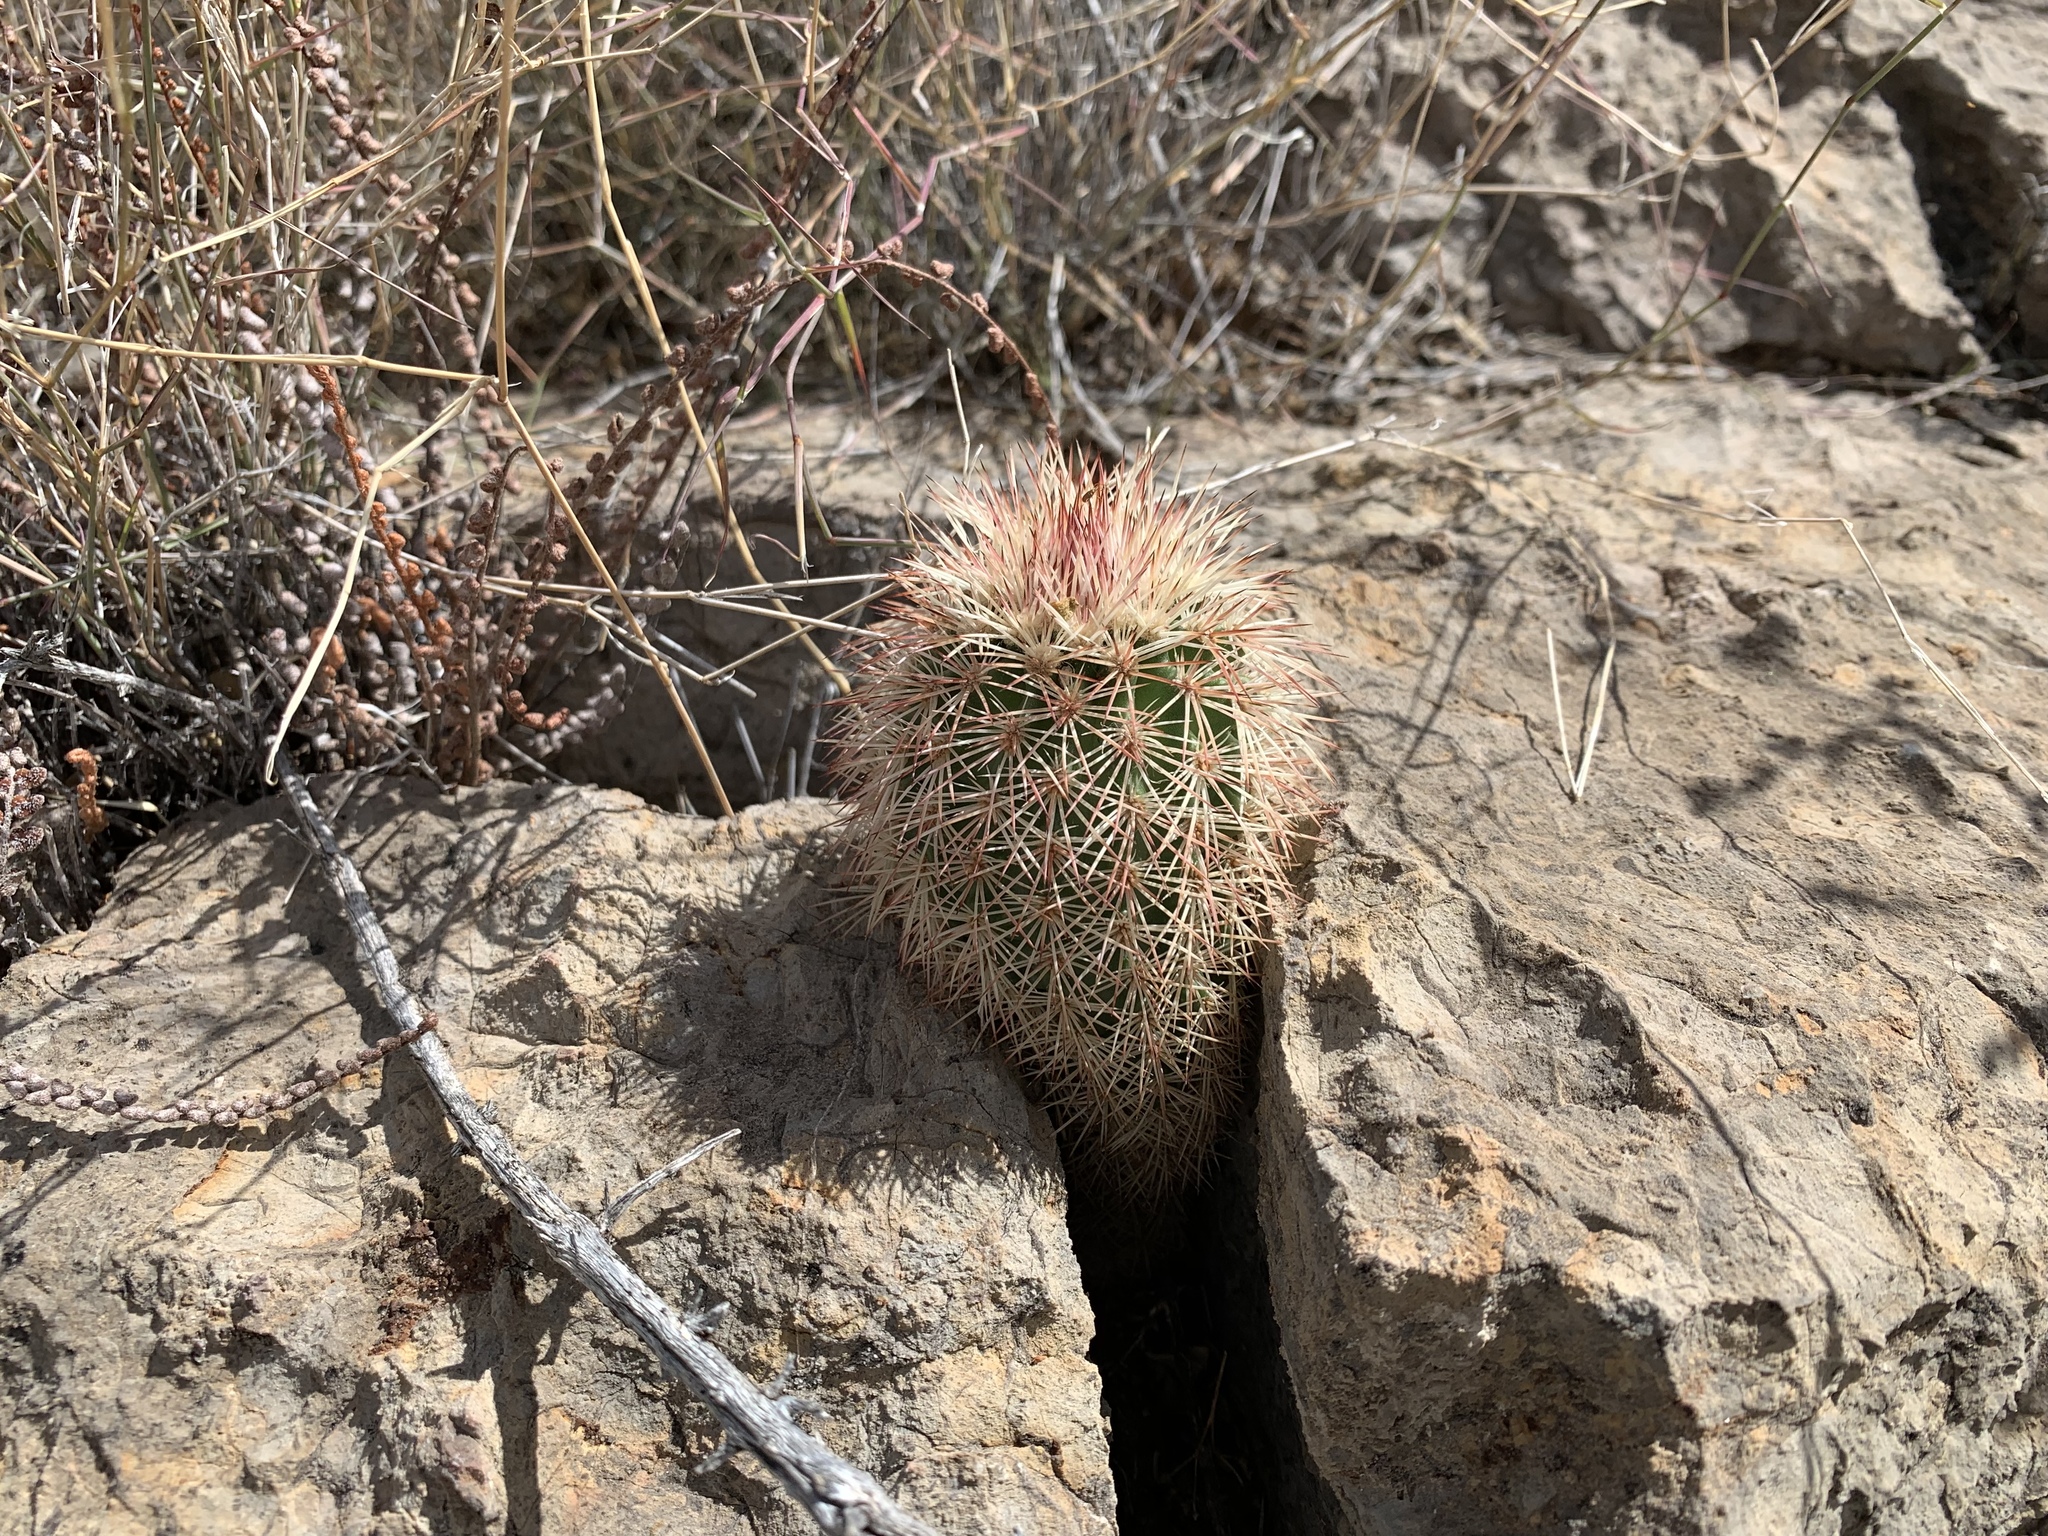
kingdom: Plantae
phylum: Tracheophyta
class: Magnoliopsida
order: Caryophyllales
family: Cactaceae
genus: Echinocereus
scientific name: Echinocereus dasyacanthus
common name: Spiny hedgehog cactus
